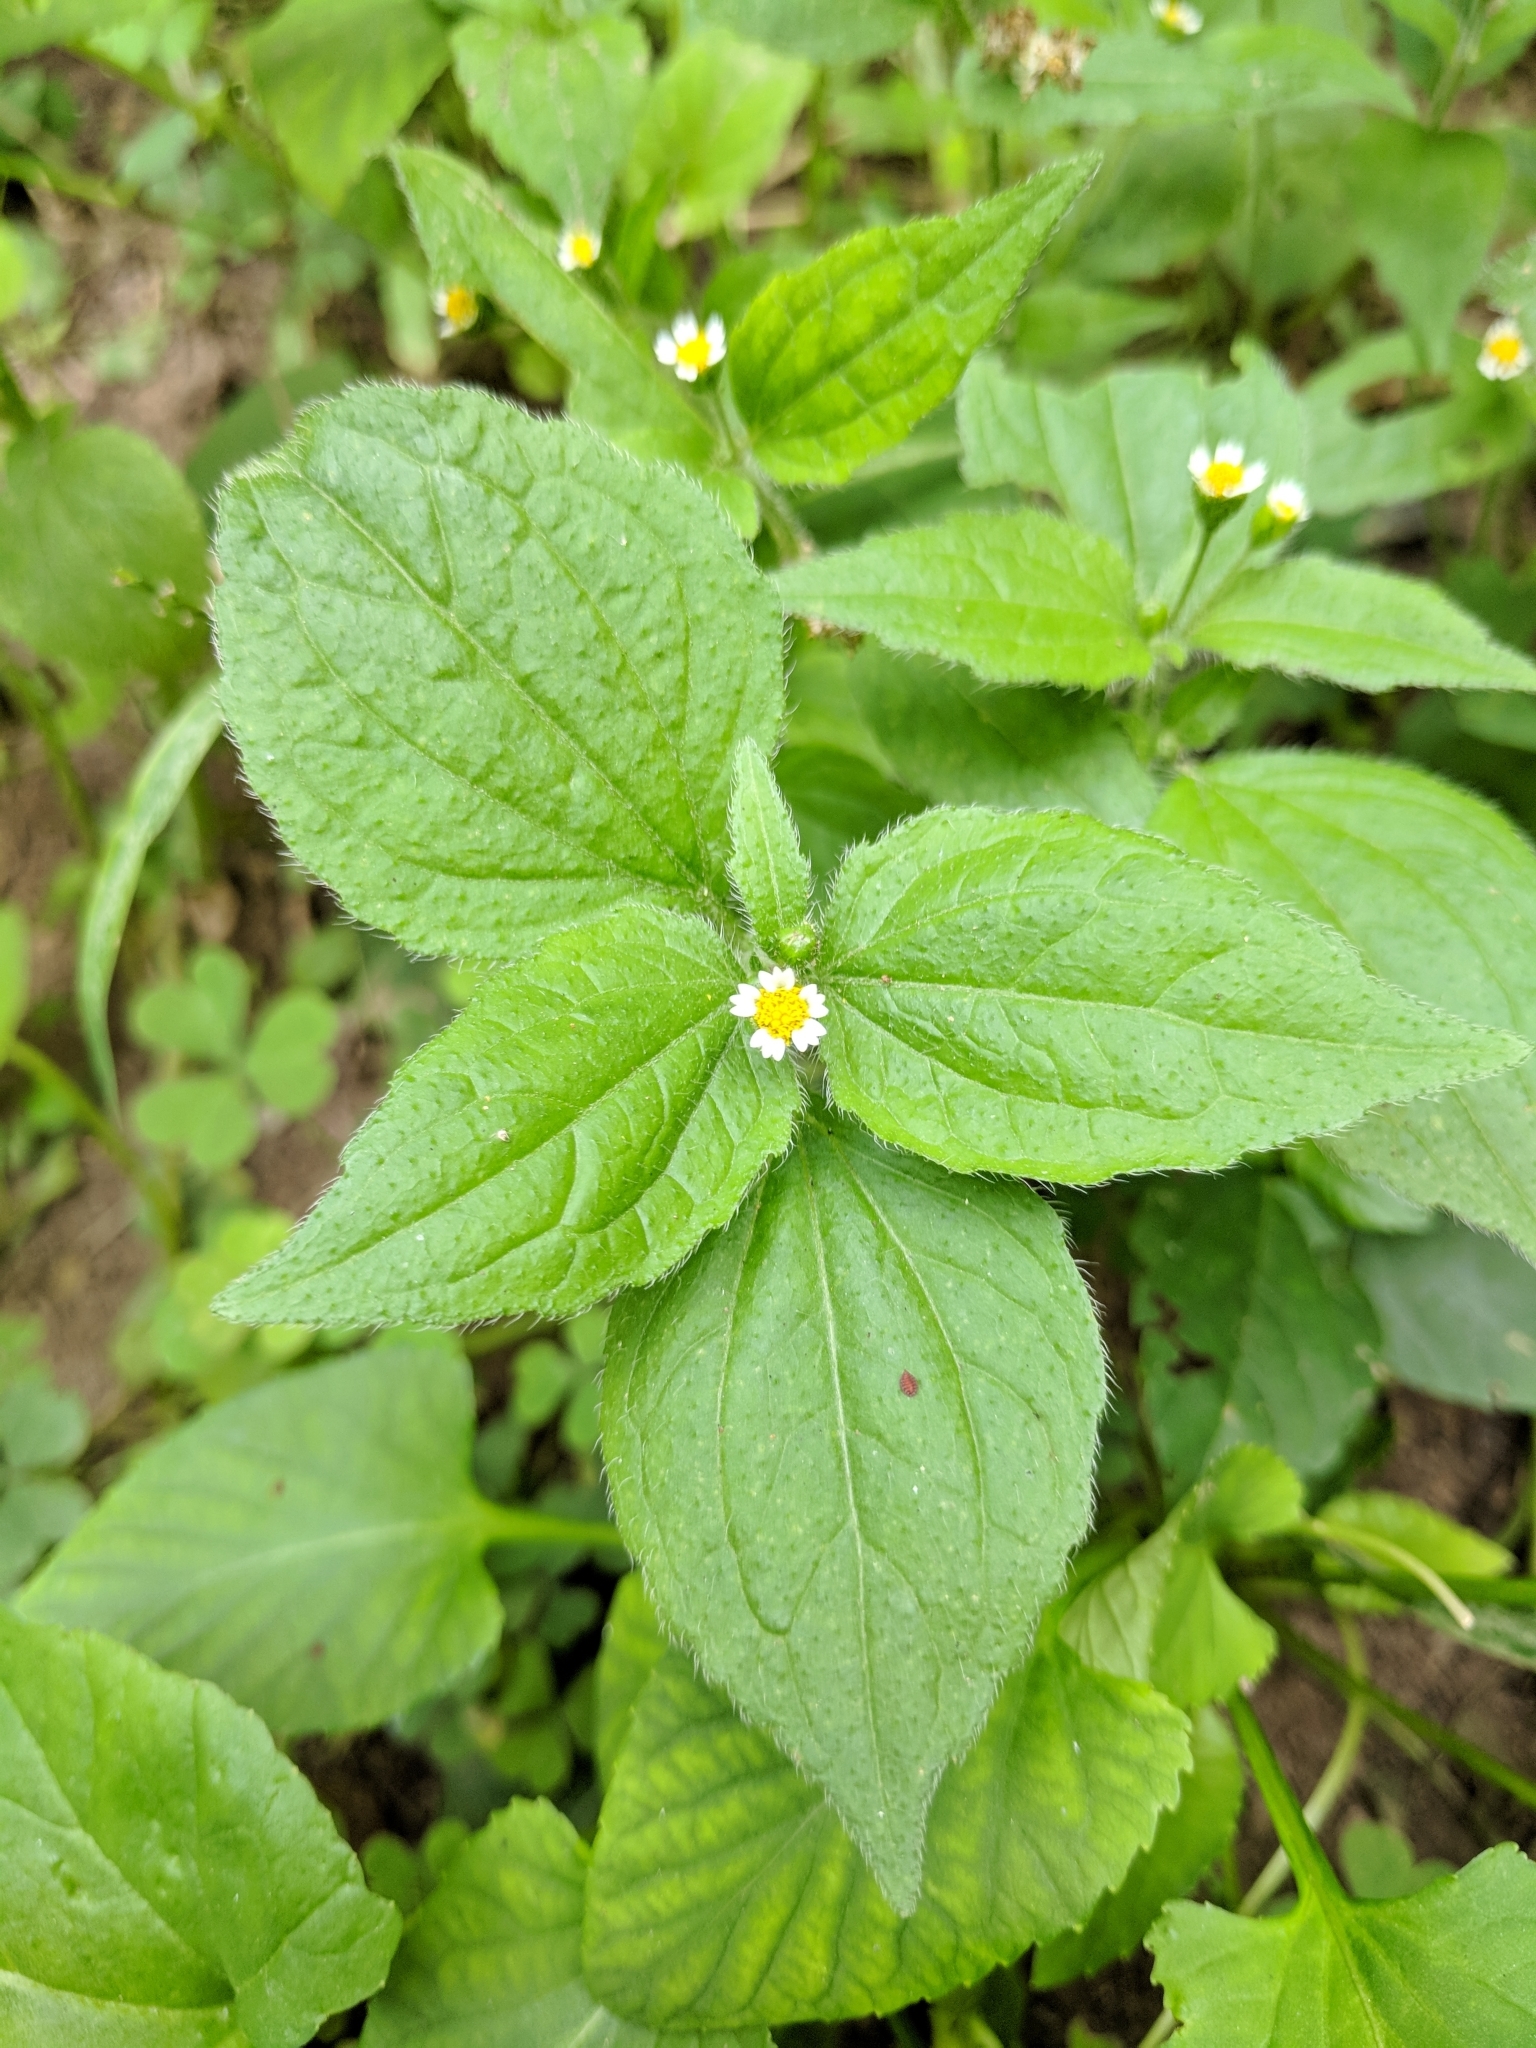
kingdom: Plantae
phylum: Tracheophyta
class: Magnoliopsida
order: Asterales
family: Asteraceae
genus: Galinsoga
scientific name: Galinsoga quadriradiata
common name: Shaggy soldier
